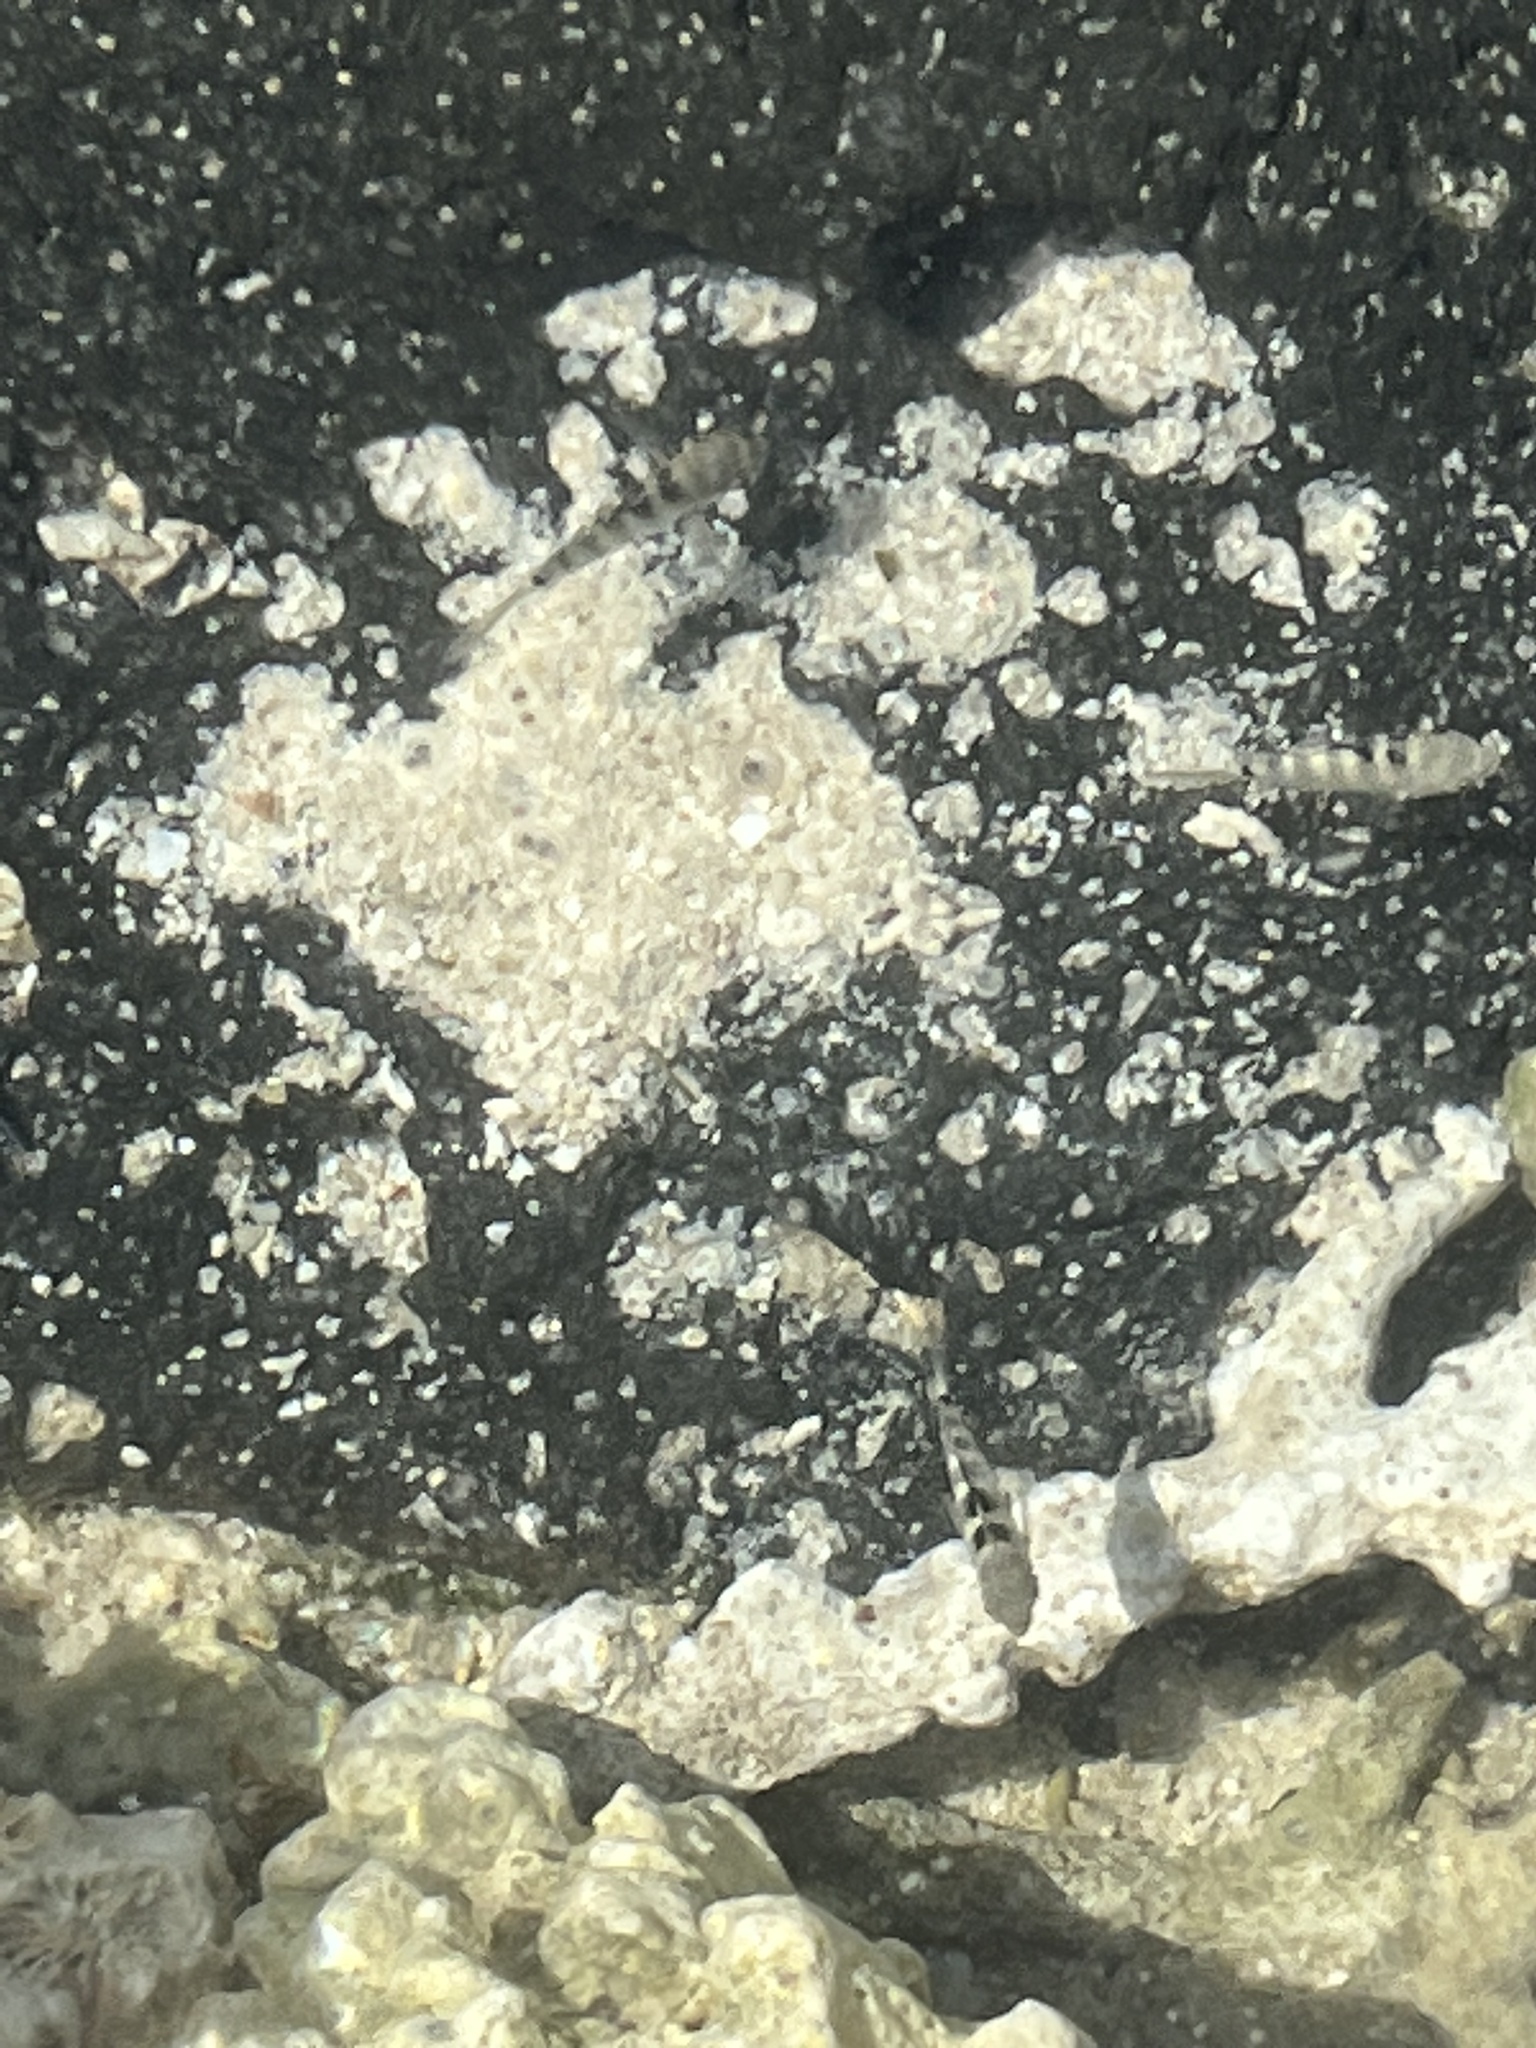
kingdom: Animalia
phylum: Chordata
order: Perciformes
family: Pomacentridae
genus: Abudefduf
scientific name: Abudefduf septemfasciatus
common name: Banded sergeant
